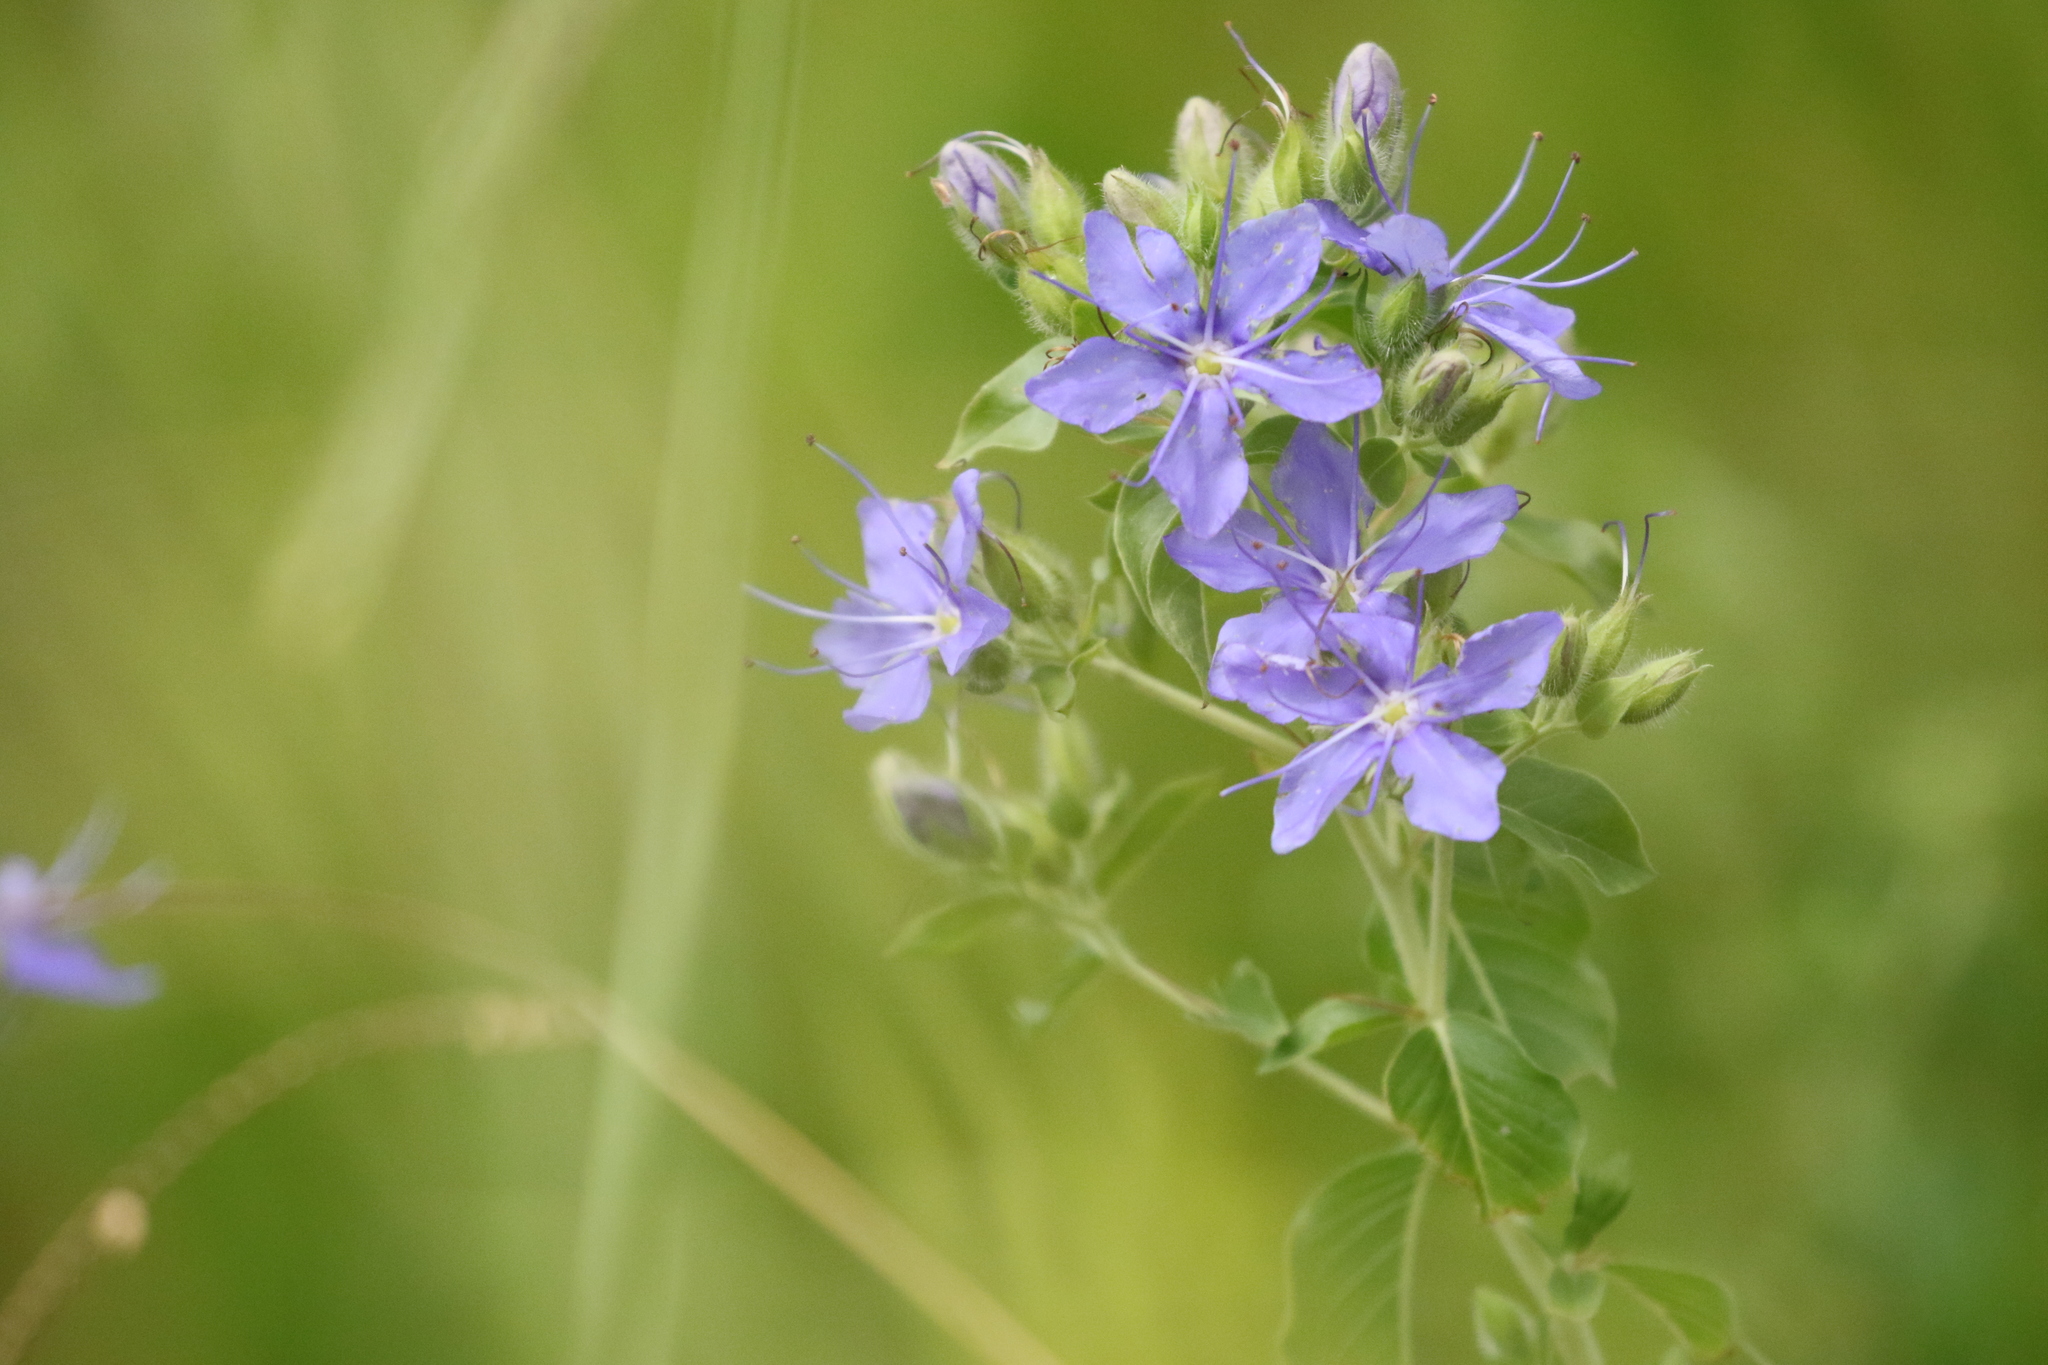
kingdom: Plantae
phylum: Tracheophyta
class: Magnoliopsida
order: Solanales
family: Hydroleaceae
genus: Hydrolea
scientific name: Hydrolea ovata
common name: Ovate false fiddleleaf
